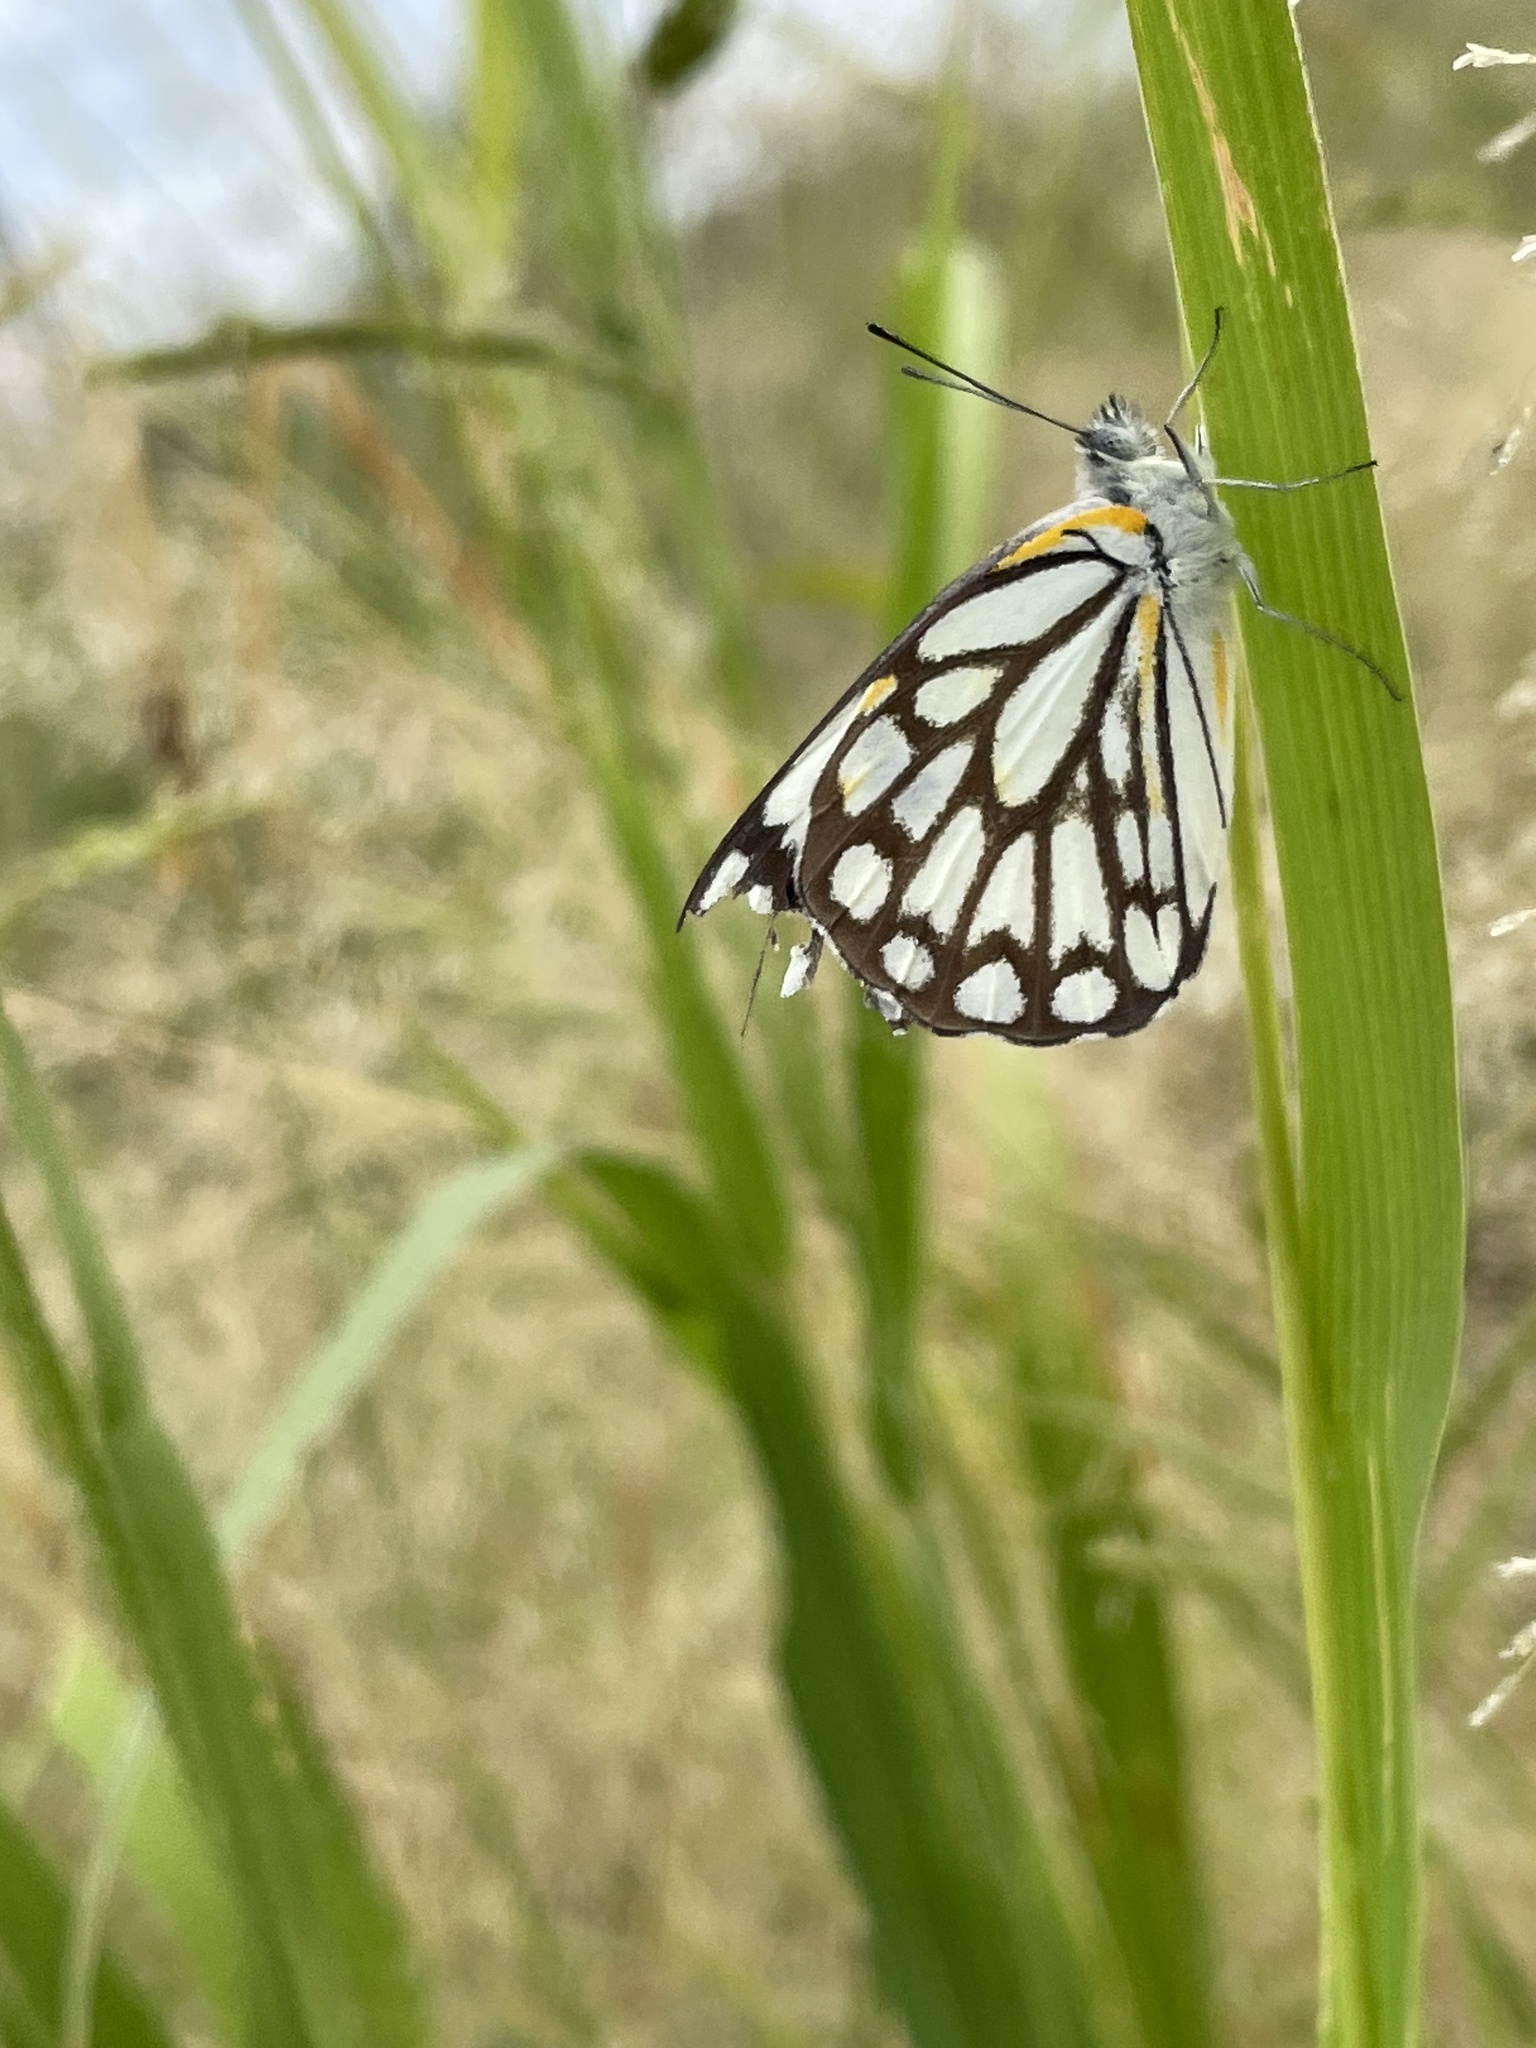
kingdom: Animalia
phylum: Arthropoda
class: Insecta
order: Lepidoptera
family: Pieridae
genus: Belenois
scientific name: Belenois aurota
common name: Brown-veined white
